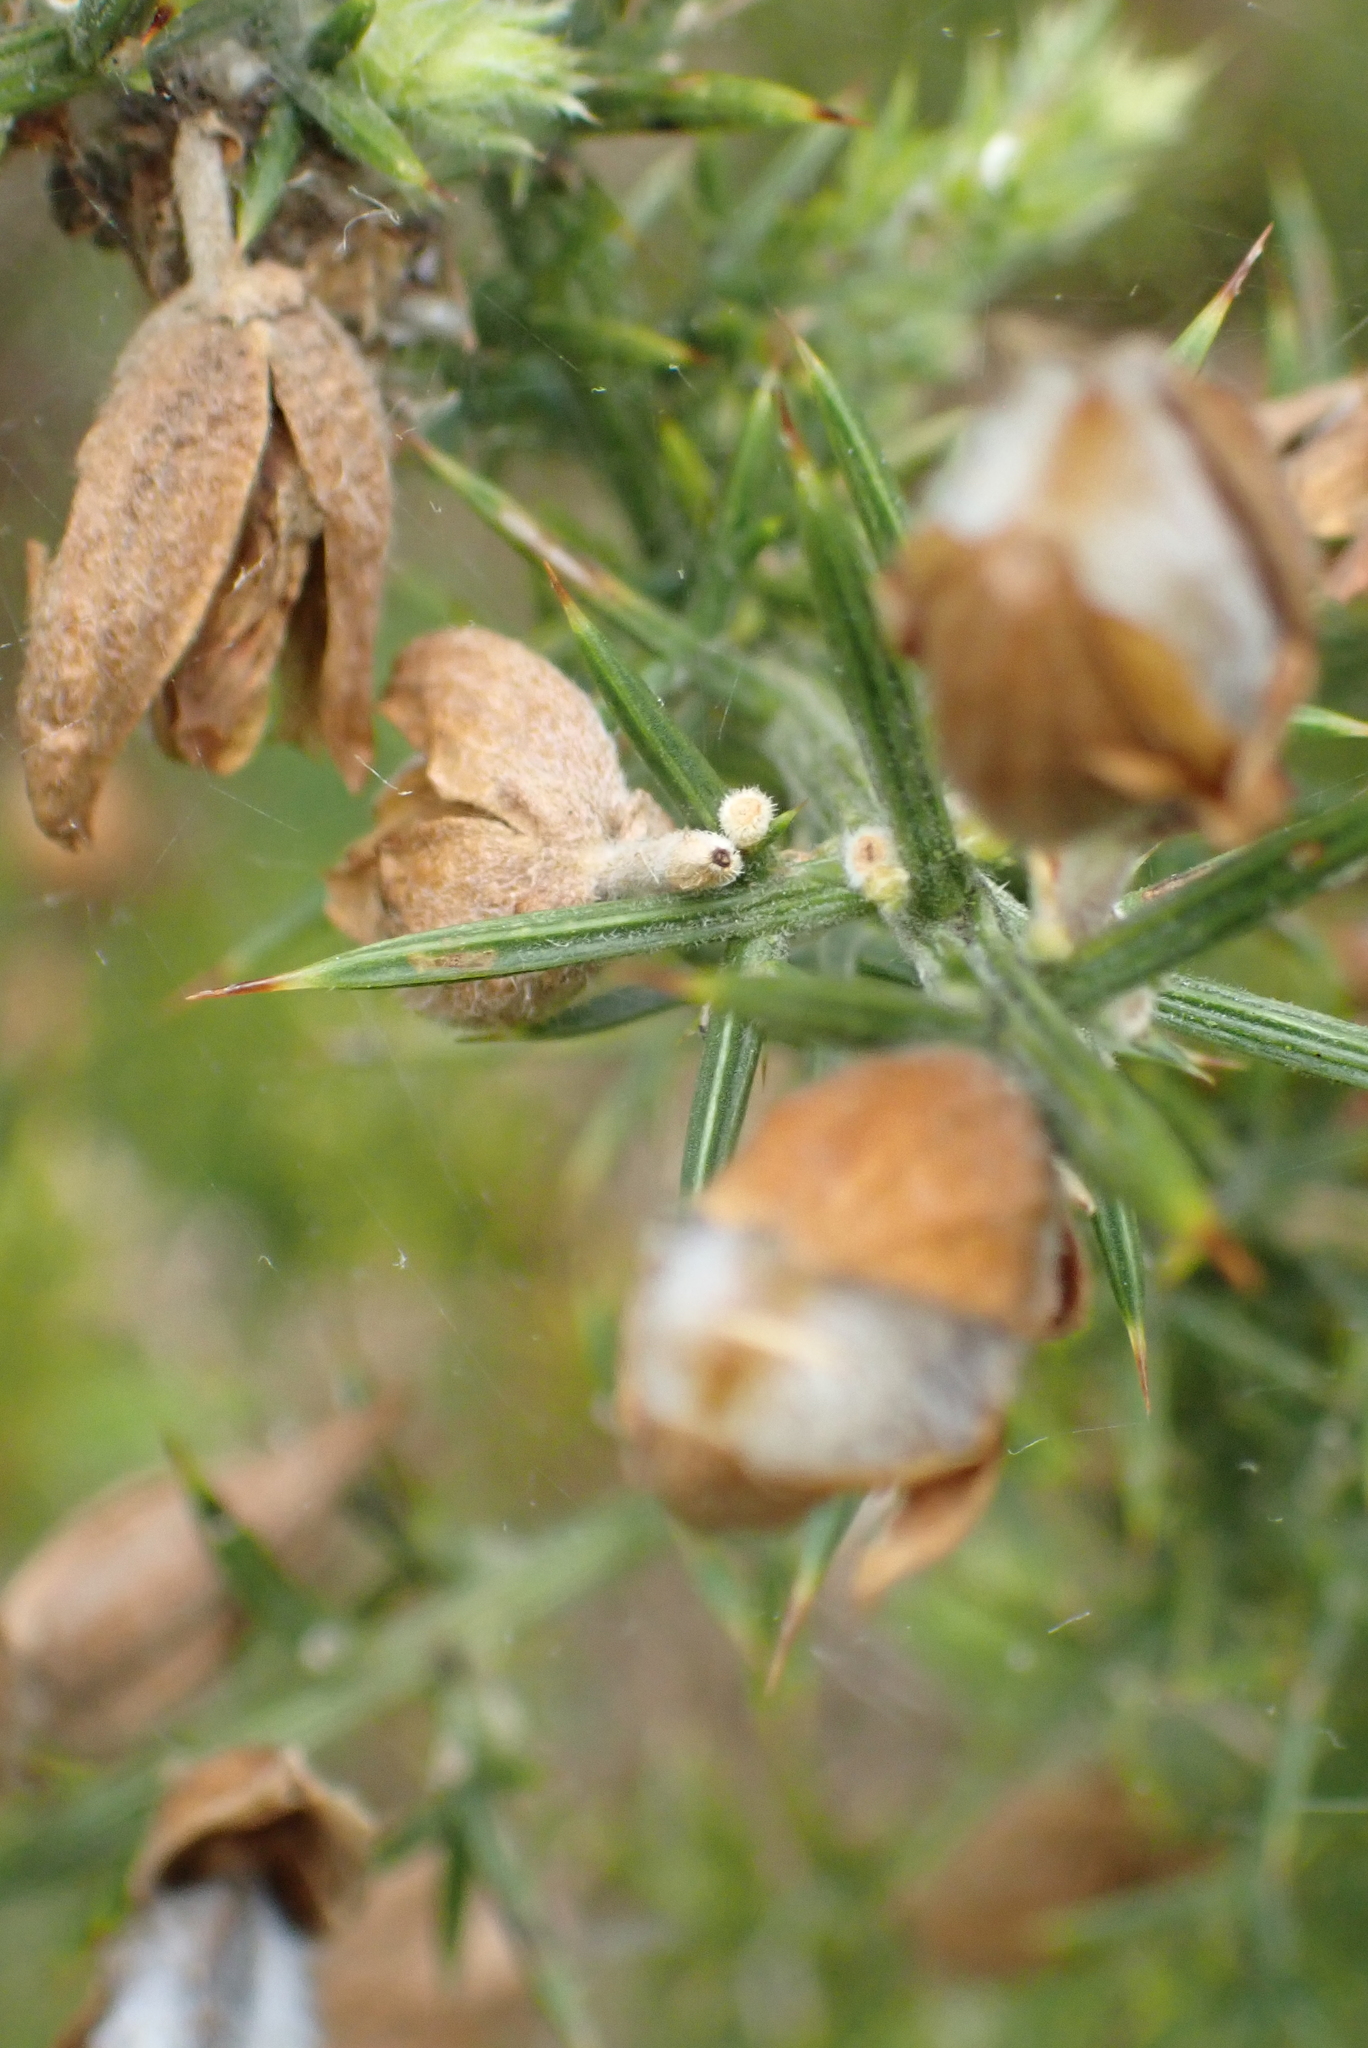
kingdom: Plantae
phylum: Tracheophyta
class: Magnoliopsida
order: Fabales
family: Fabaceae
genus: Ulex
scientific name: Ulex europaeus
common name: Common gorse
